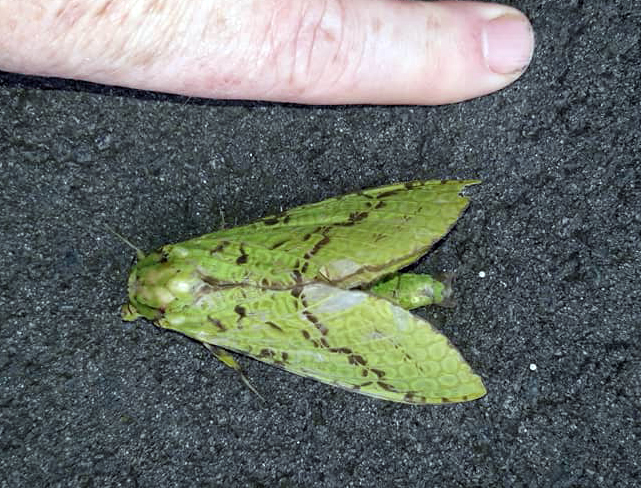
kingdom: Animalia
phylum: Arthropoda
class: Insecta
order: Lepidoptera
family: Hepialidae
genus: Aenetus
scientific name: Aenetus virescens
